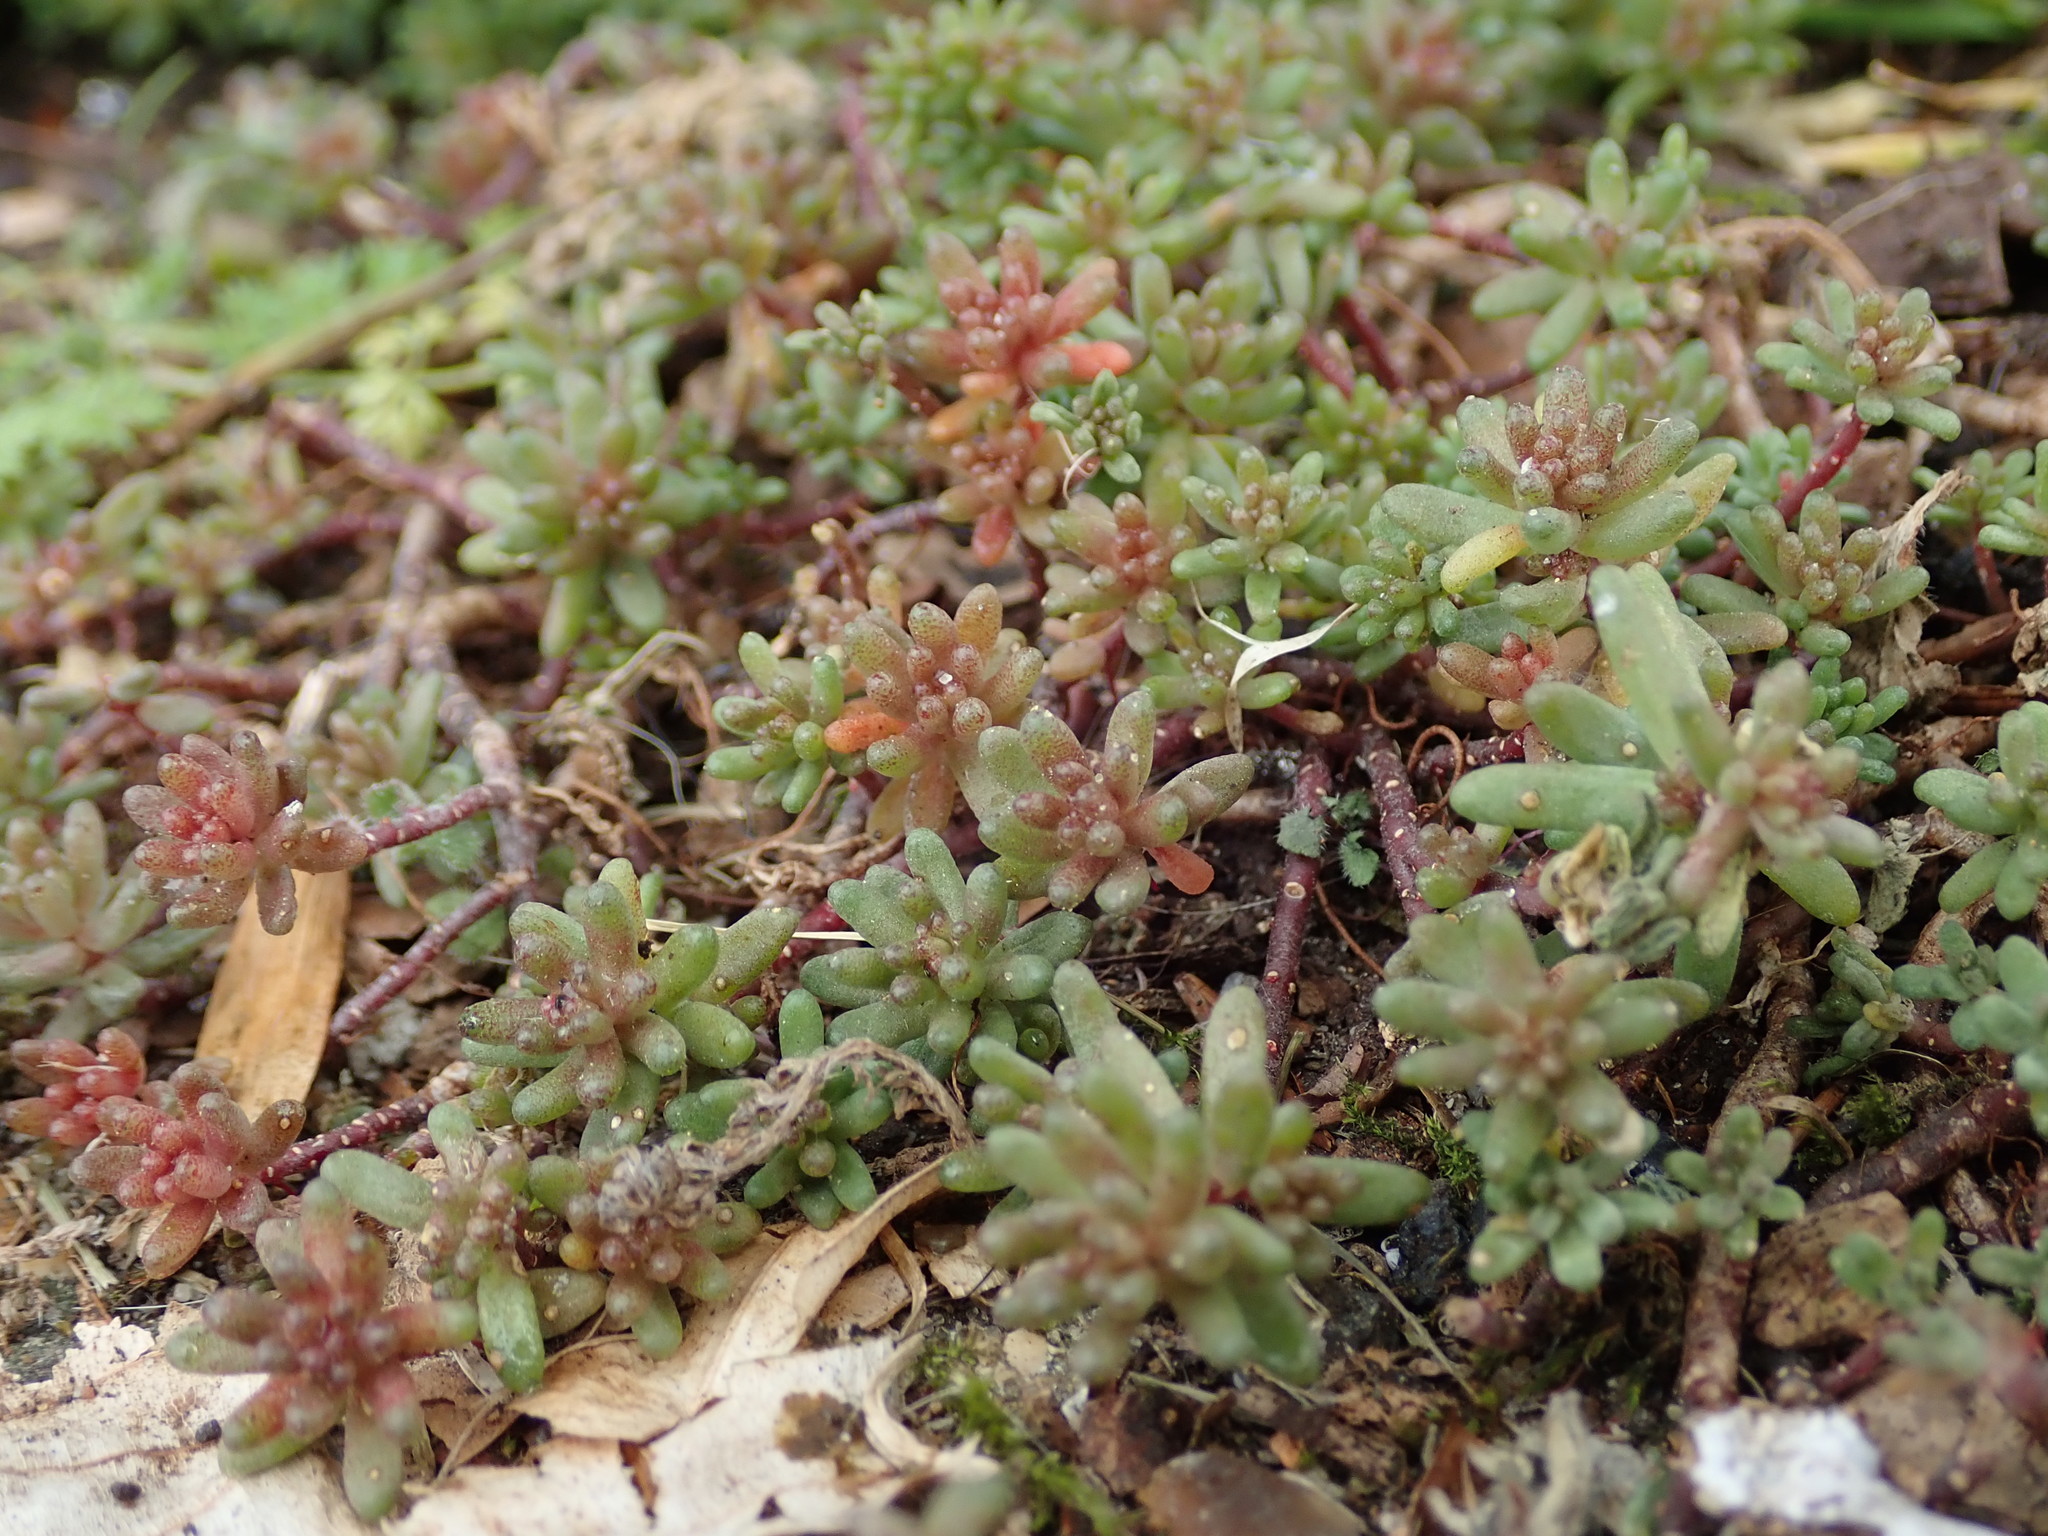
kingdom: Plantae
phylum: Tracheophyta
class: Magnoliopsida
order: Saxifragales
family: Crassulaceae
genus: Sedum
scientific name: Sedum album
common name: White stonecrop
